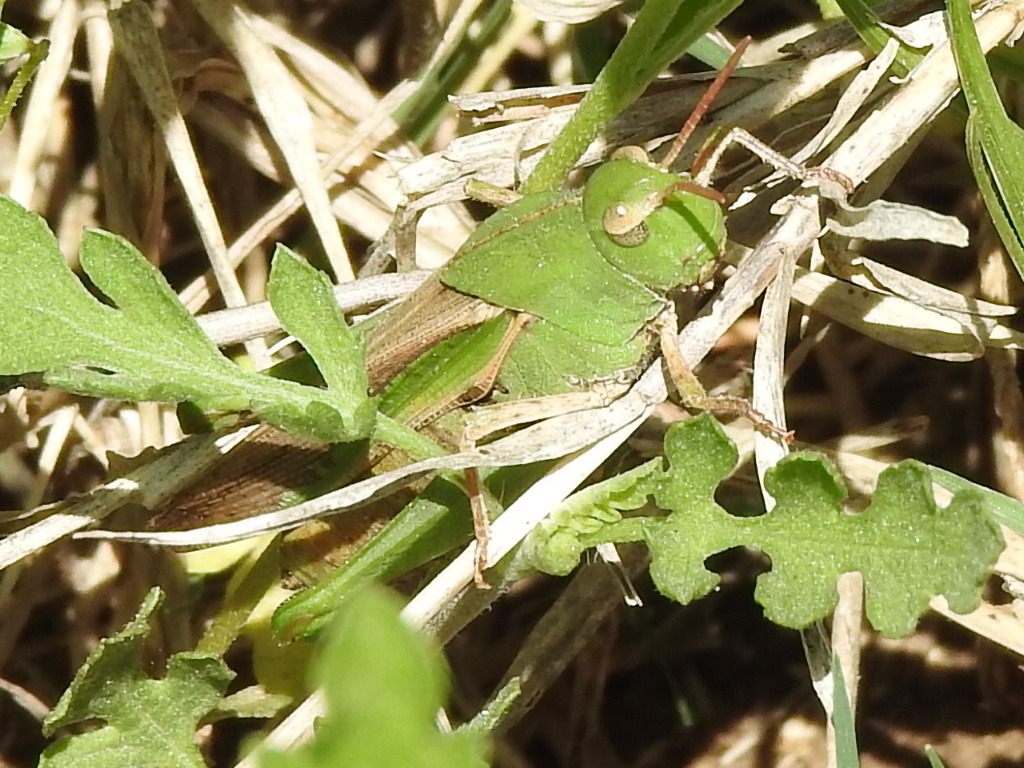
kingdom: Animalia
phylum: Arthropoda
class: Insecta
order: Orthoptera
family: Acrididae
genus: Chortophaga
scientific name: Chortophaga viridifasciata
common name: Green-striped grasshopper
